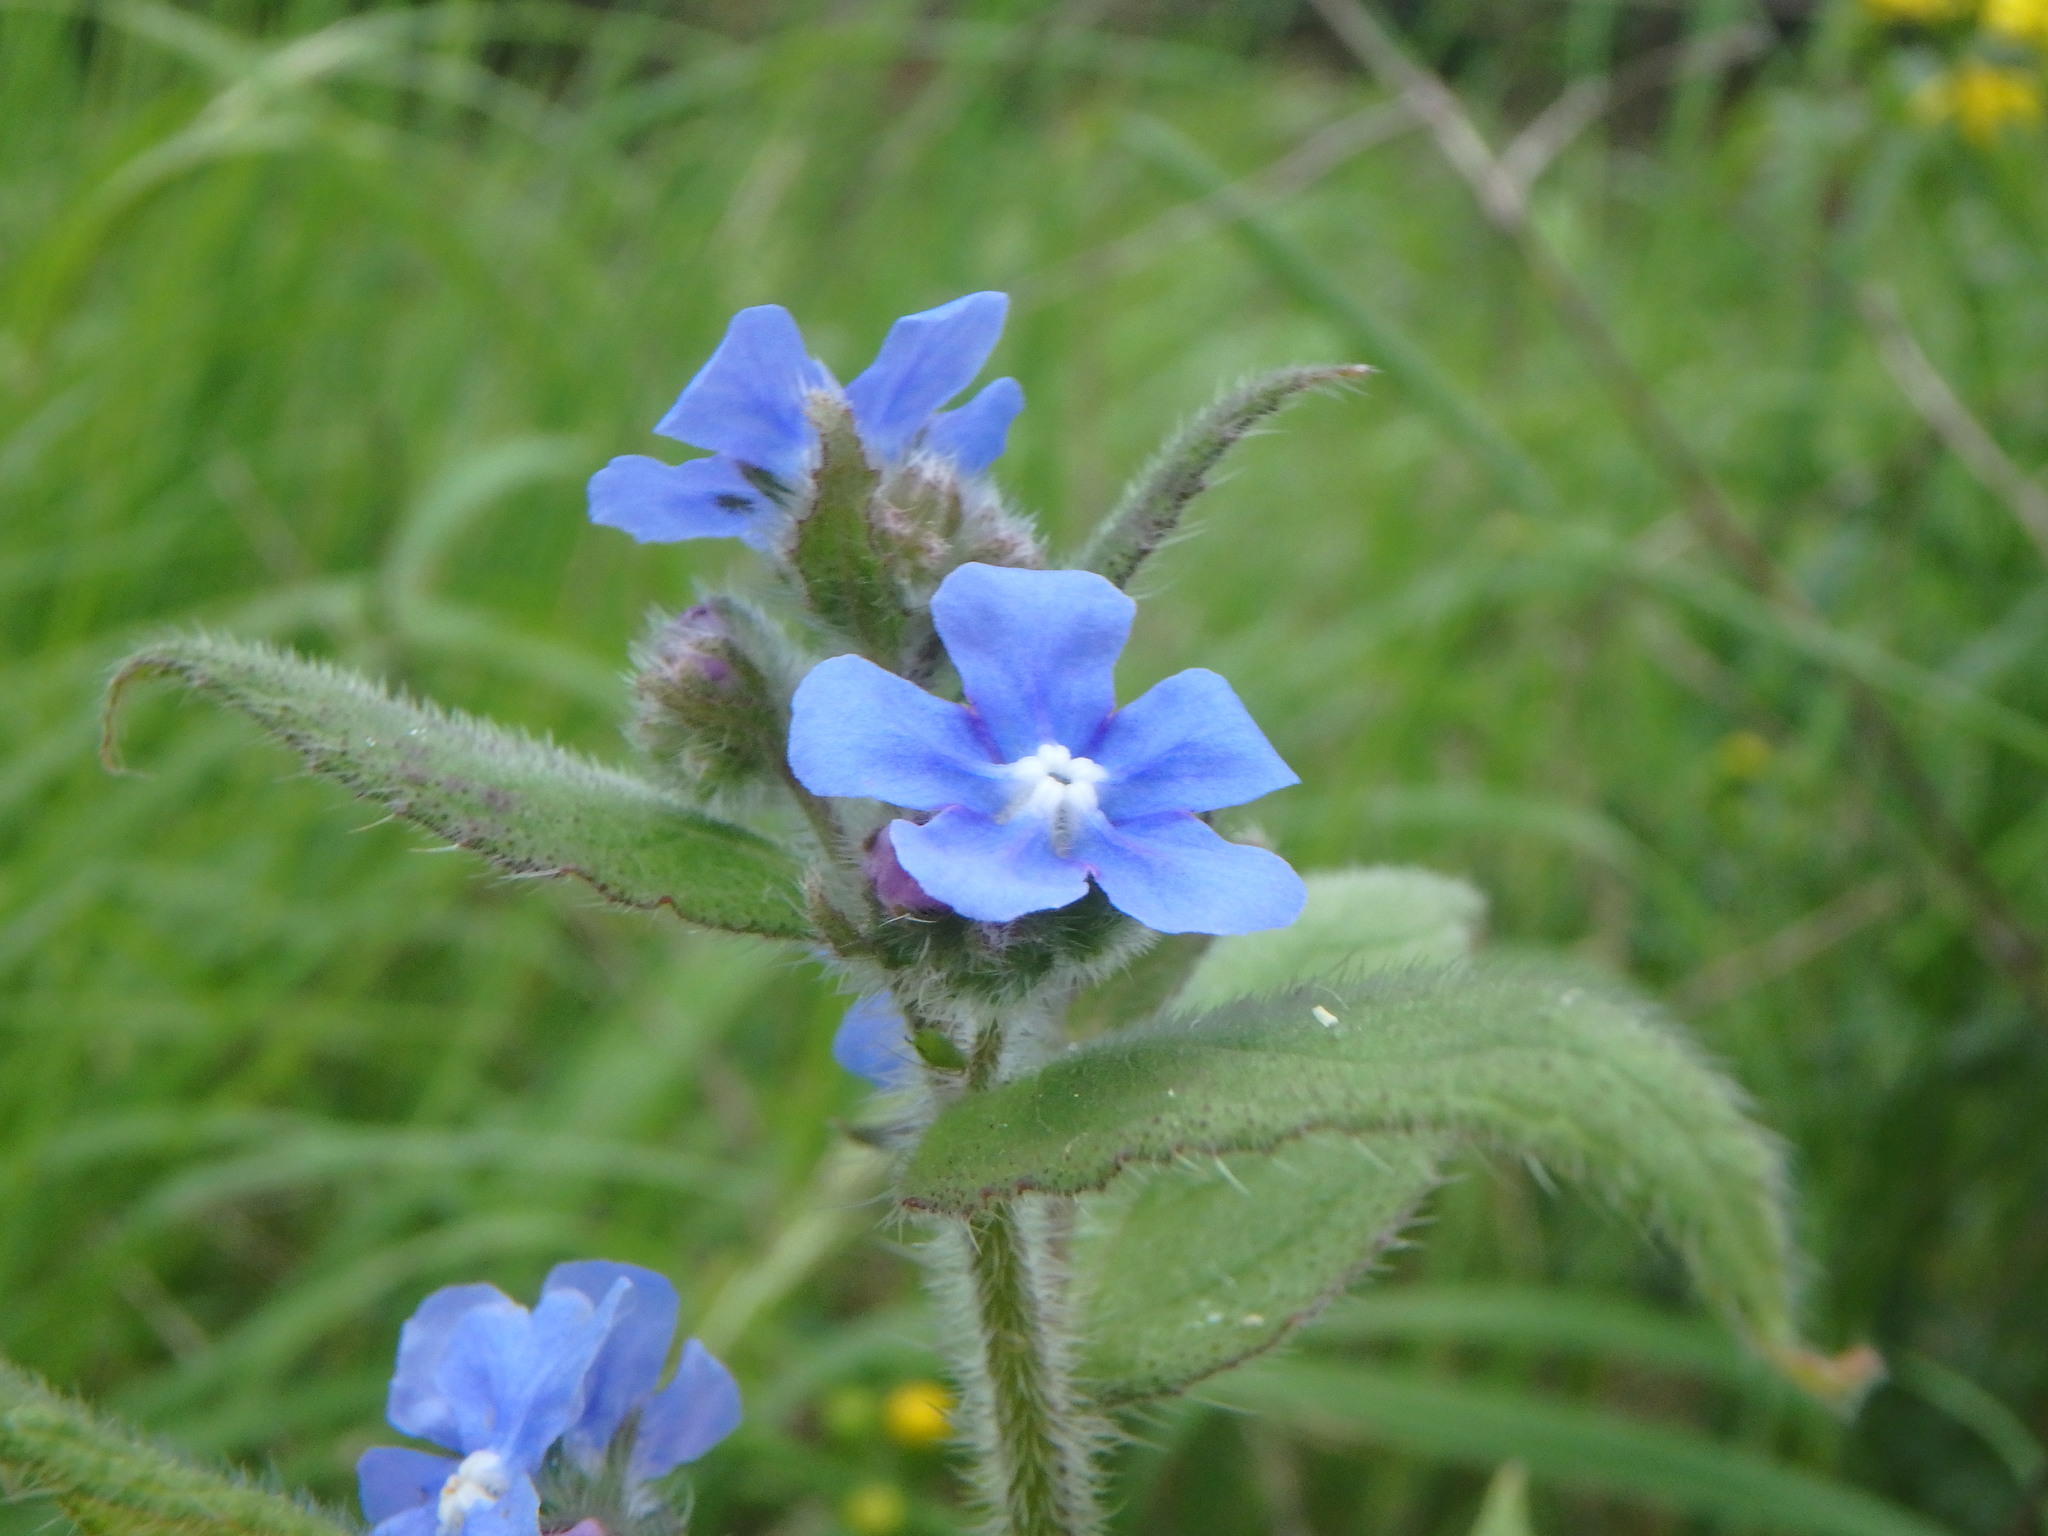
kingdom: Plantae
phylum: Tracheophyta
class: Magnoliopsida
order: Boraginales
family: Boraginaceae
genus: Pentaglottis
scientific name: Pentaglottis sempervirens
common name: Green alkanet
